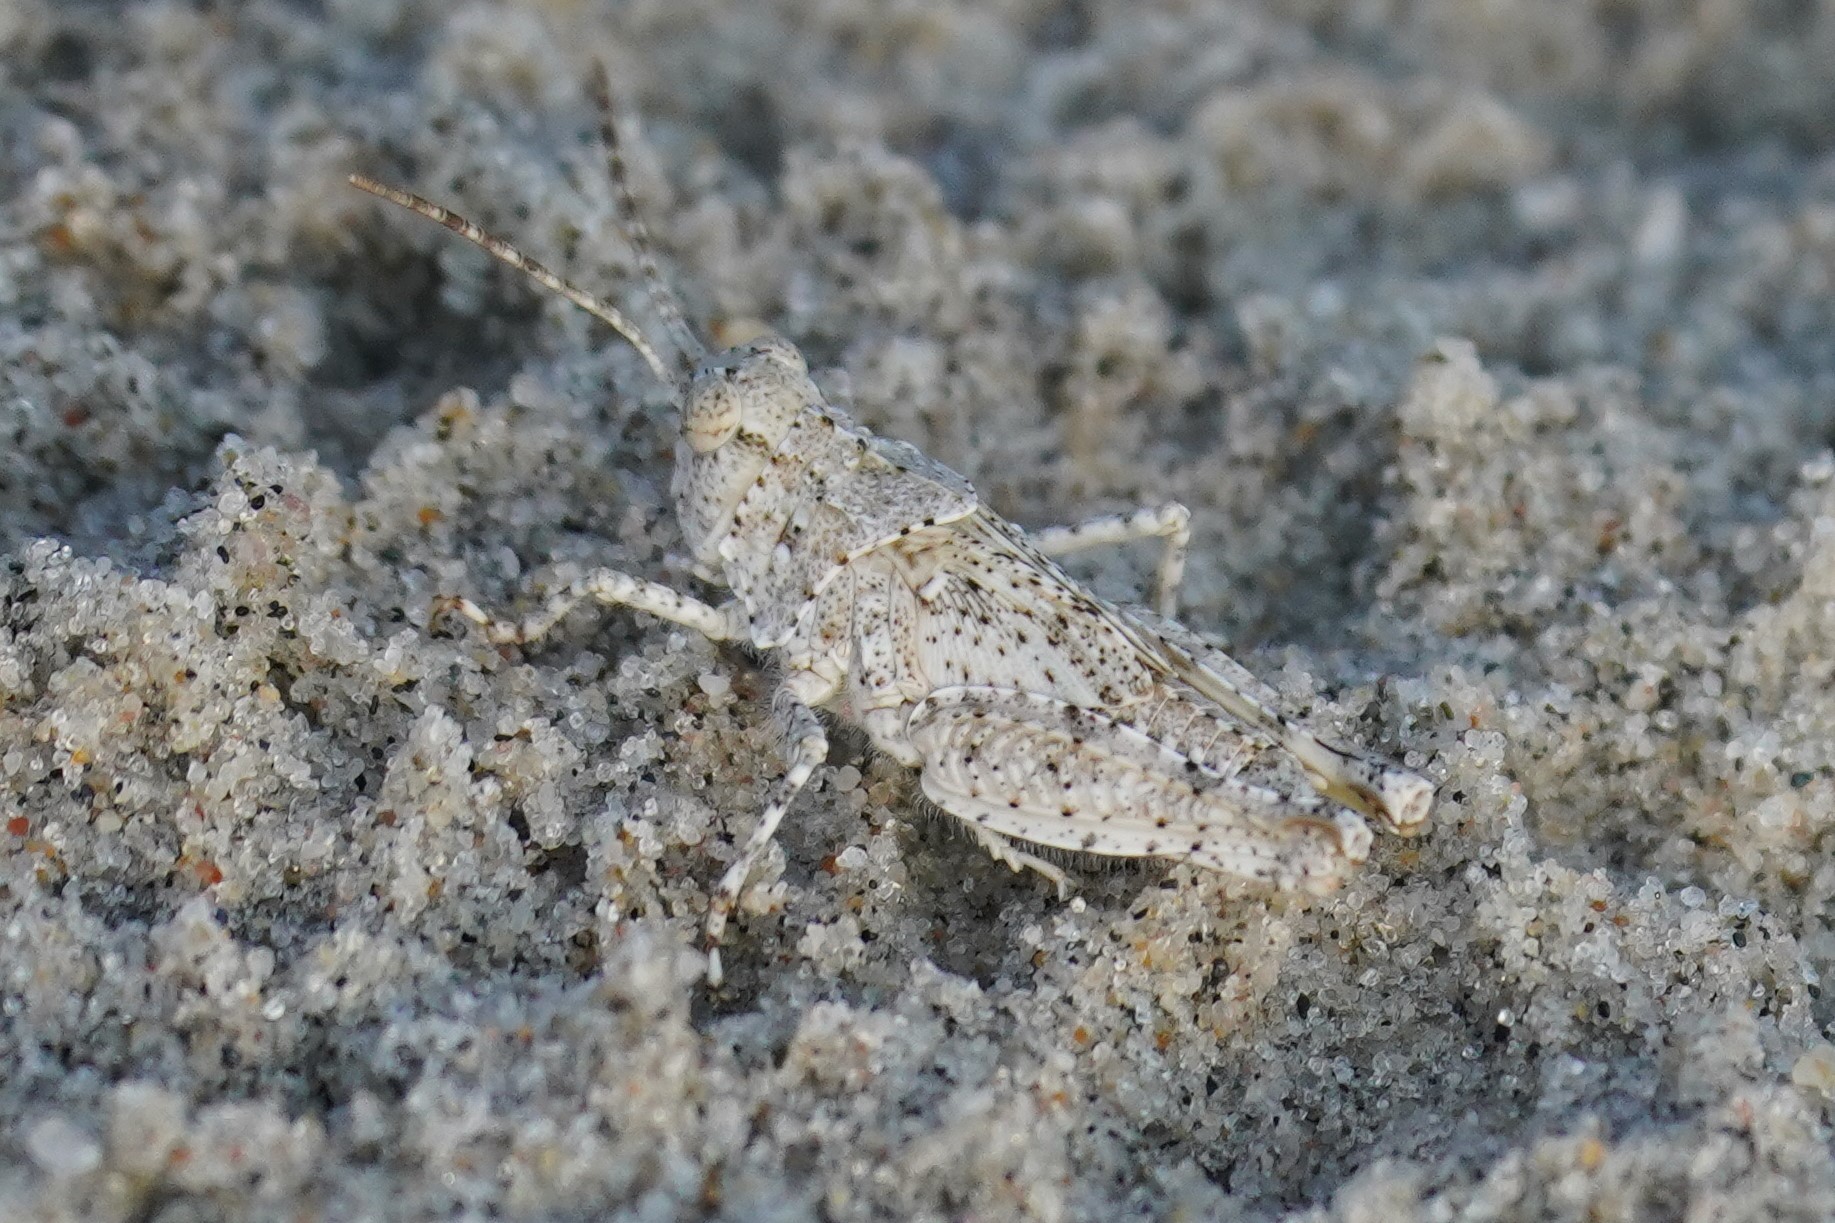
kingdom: Animalia
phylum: Arthropoda
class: Insecta
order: Orthoptera
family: Acrididae
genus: Trimerotropis
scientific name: Trimerotropis maritima
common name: Seaside locust
